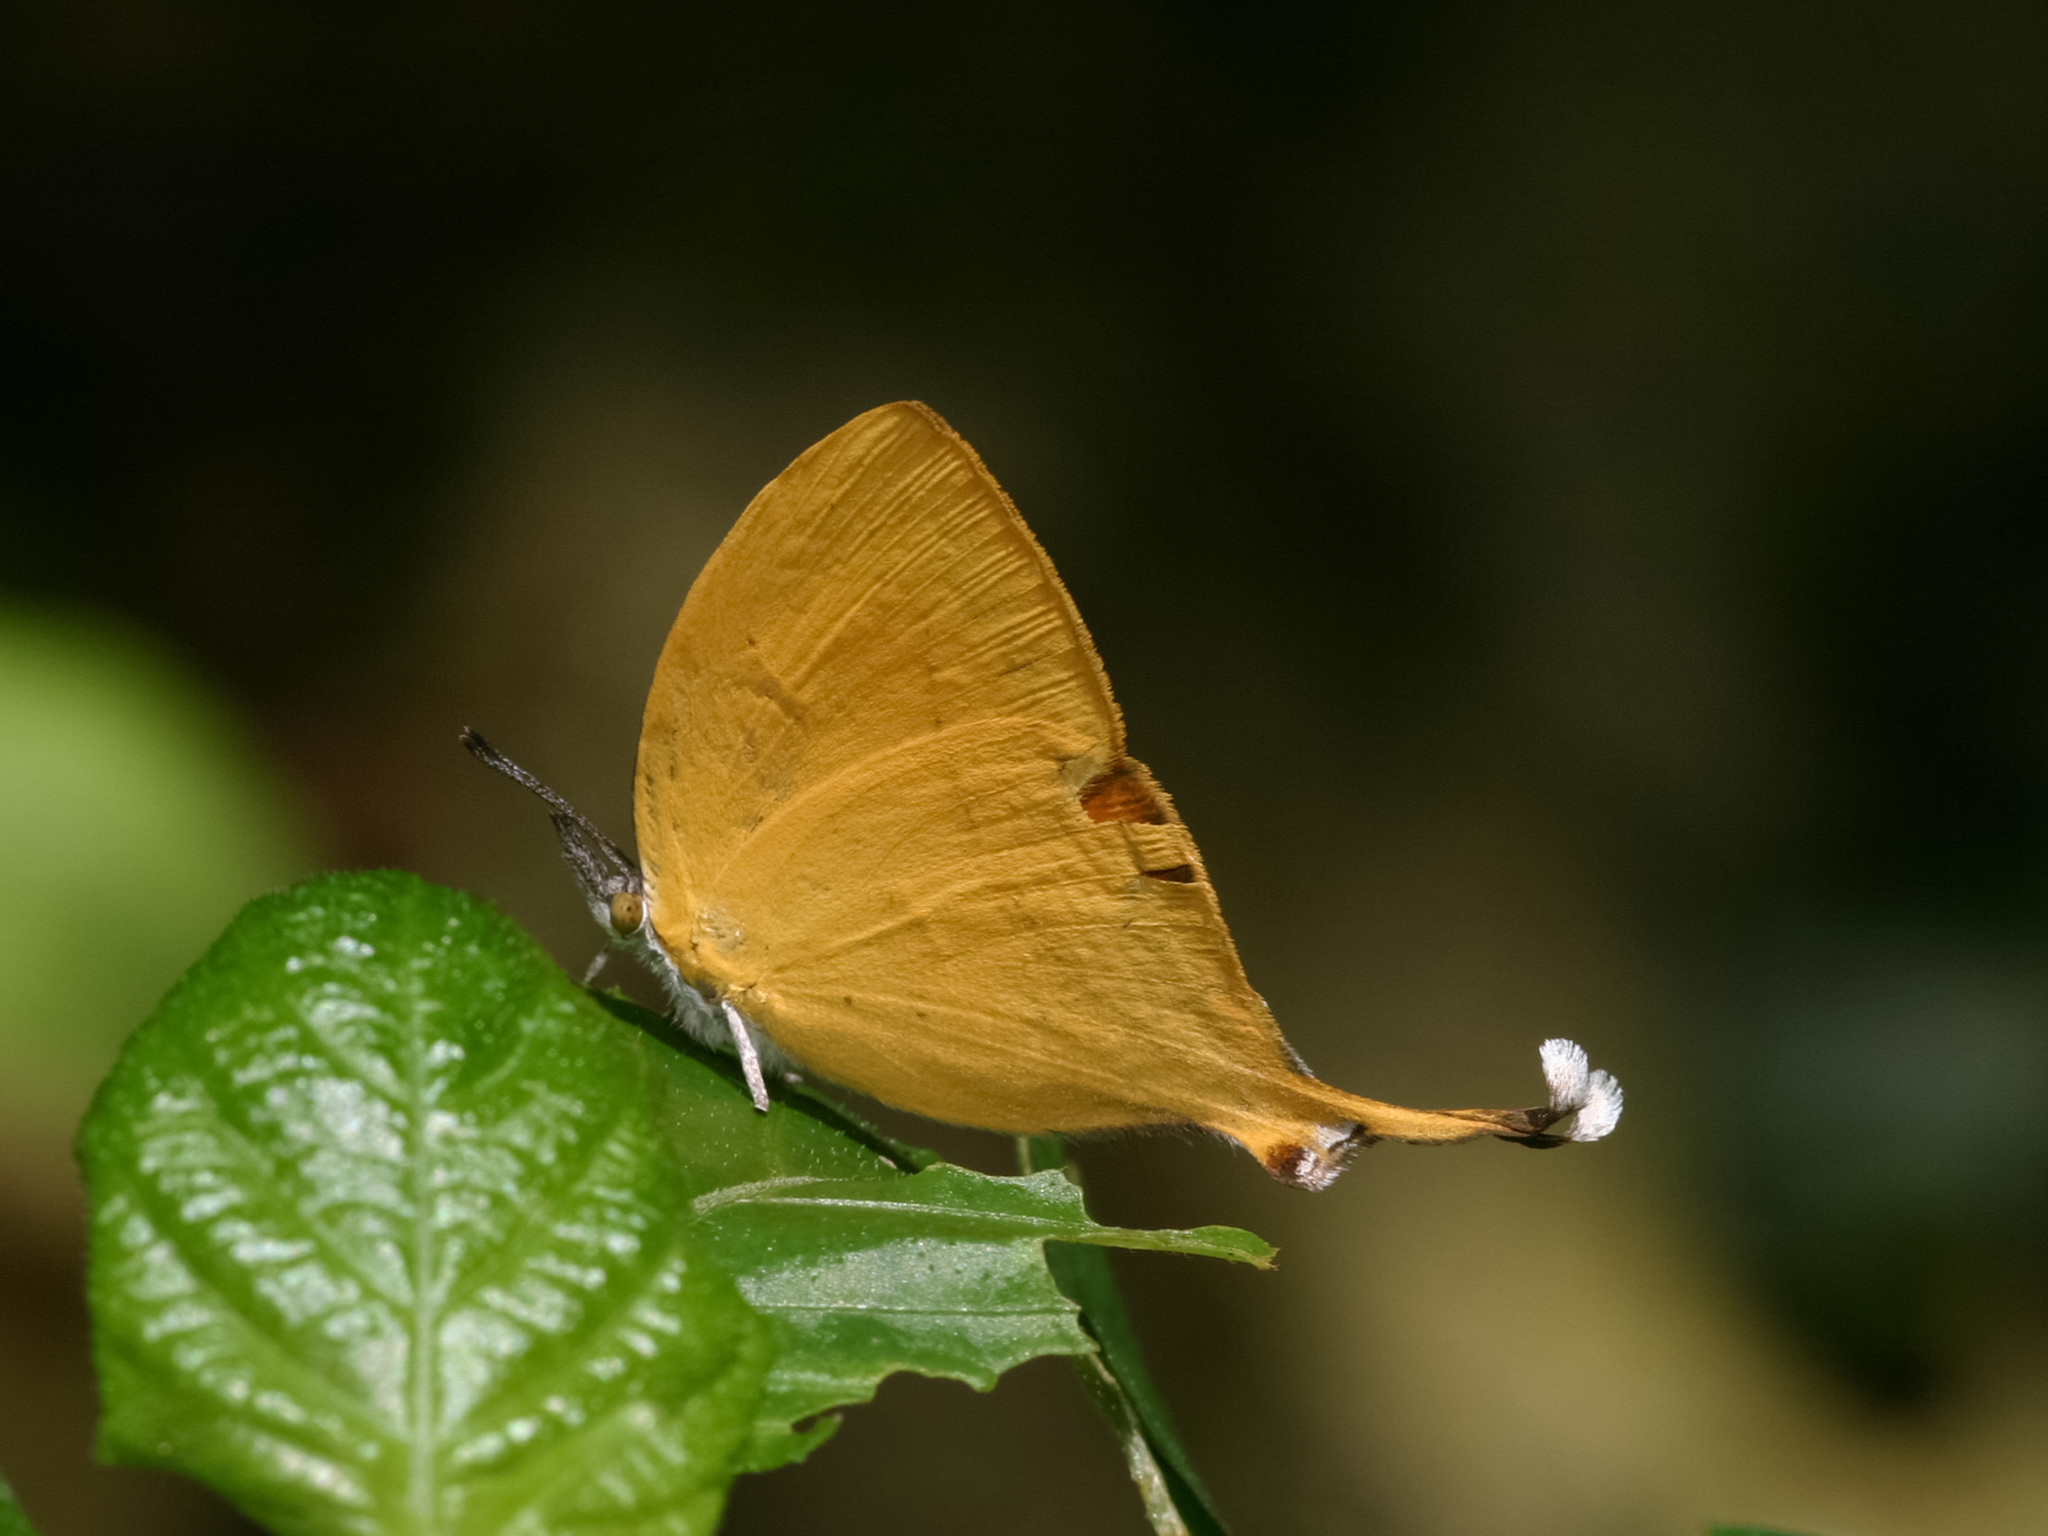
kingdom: Animalia
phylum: Arthropoda
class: Insecta
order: Lepidoptera
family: Lycaenidae
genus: Loxura
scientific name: Loxura atymnus
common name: Common yamfly
